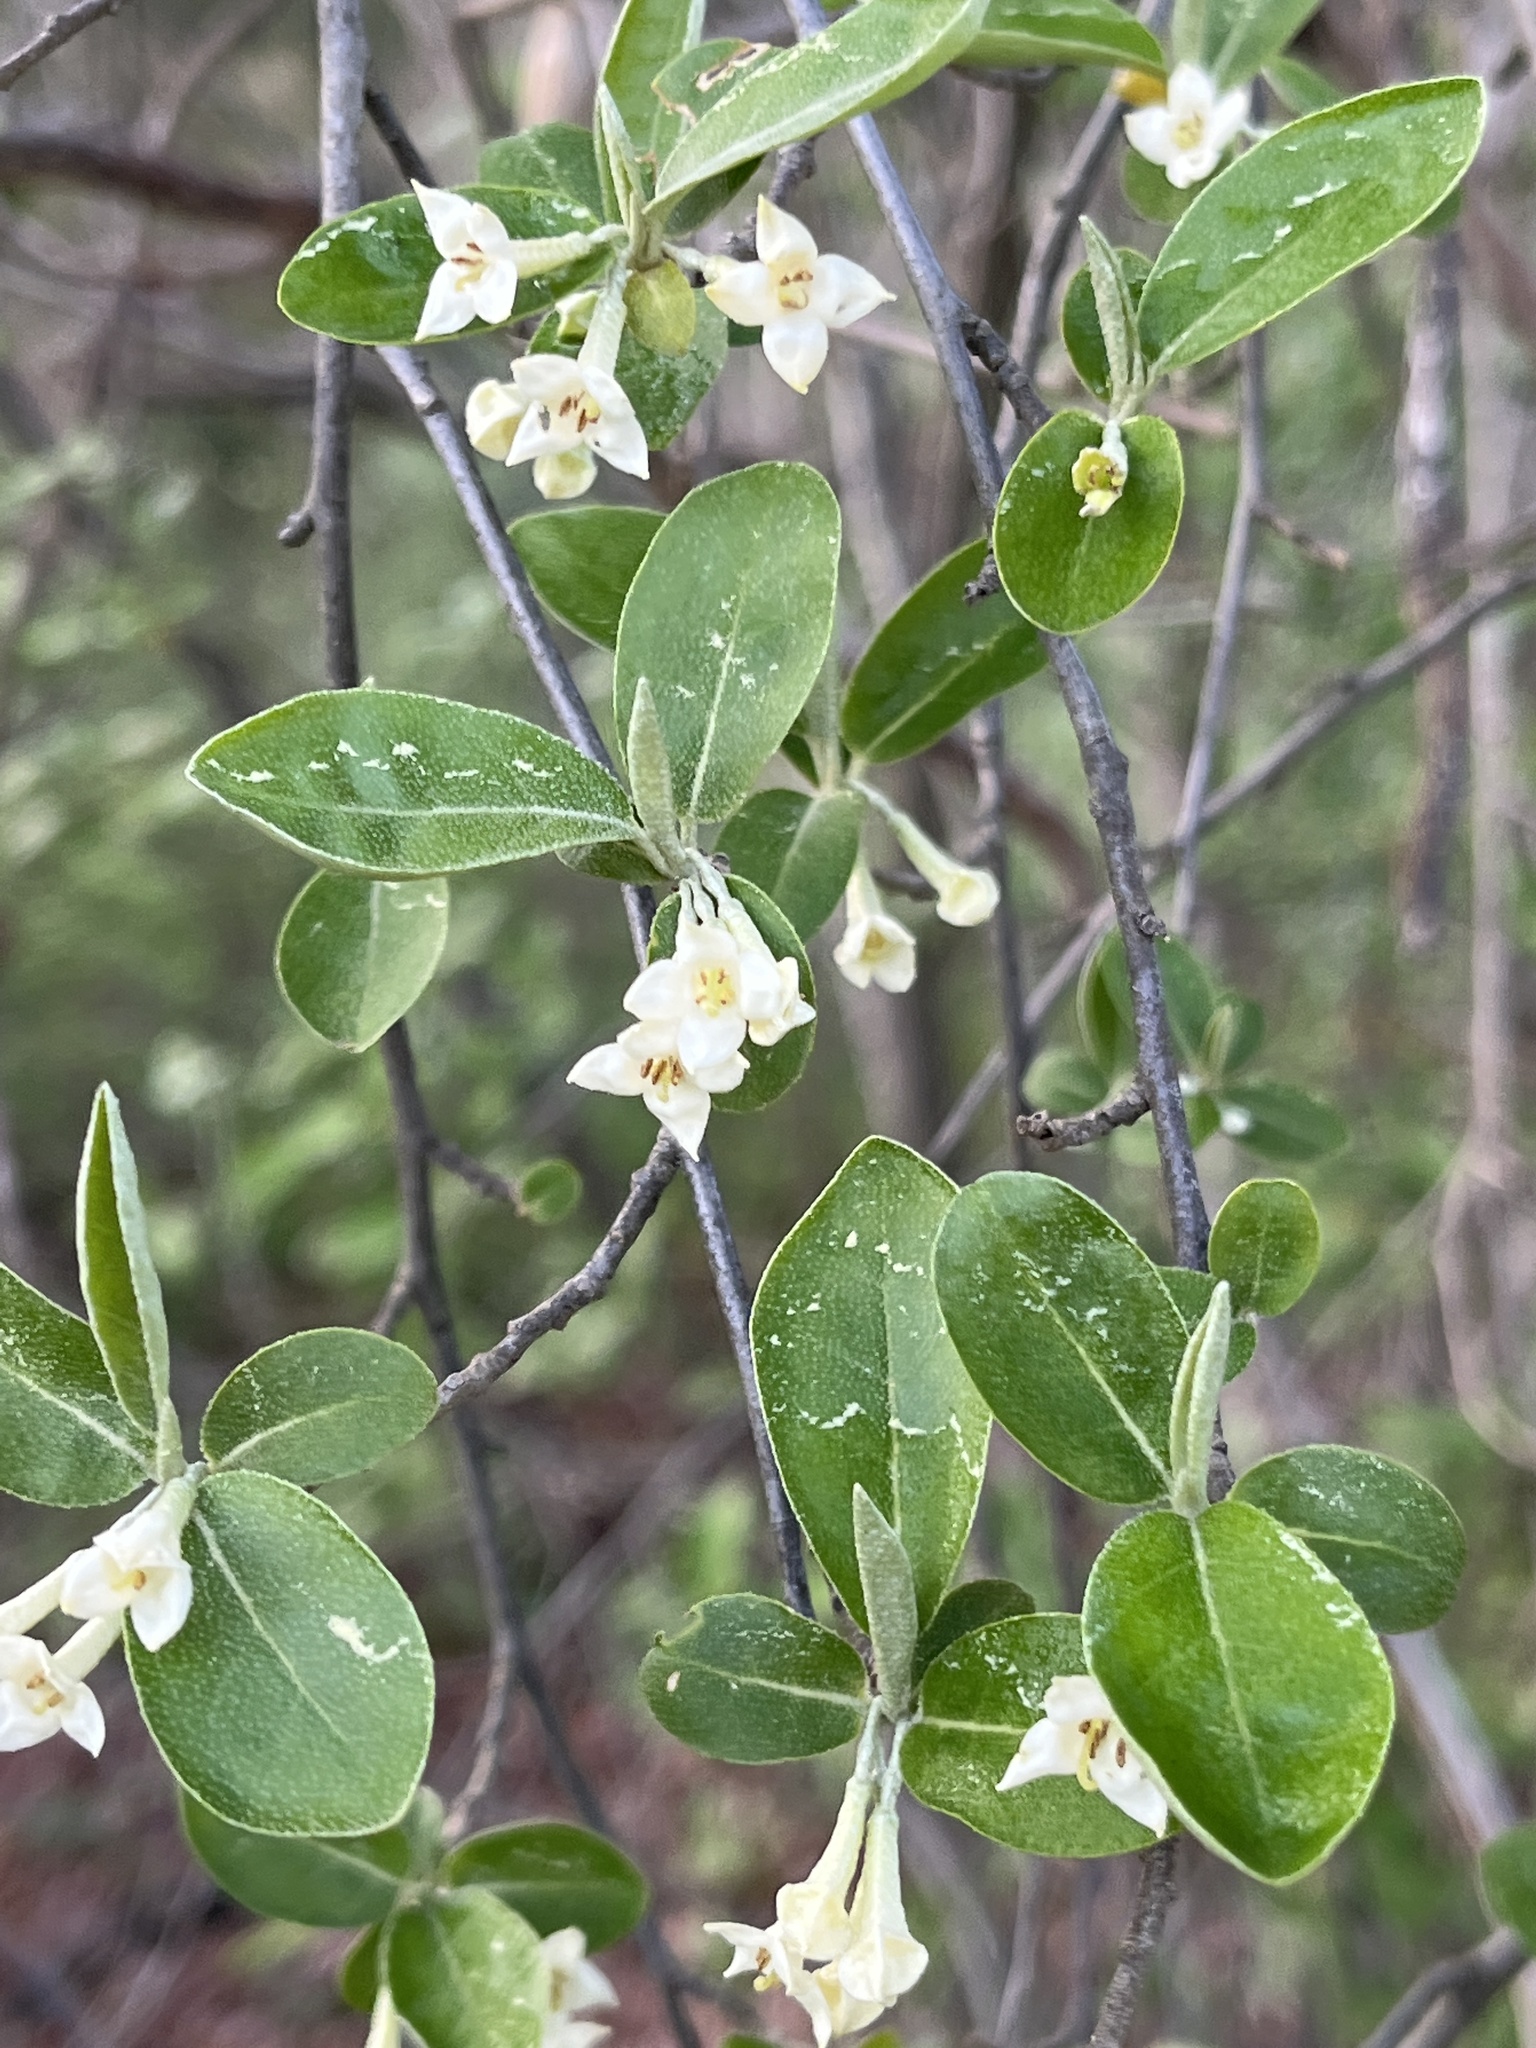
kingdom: Plantae
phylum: Tracheophyta
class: Magnoliopsida
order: Rosales
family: Elaeagnaceae
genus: Elaeagnus
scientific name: Elaeagnus umbellata
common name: Autumn olive
